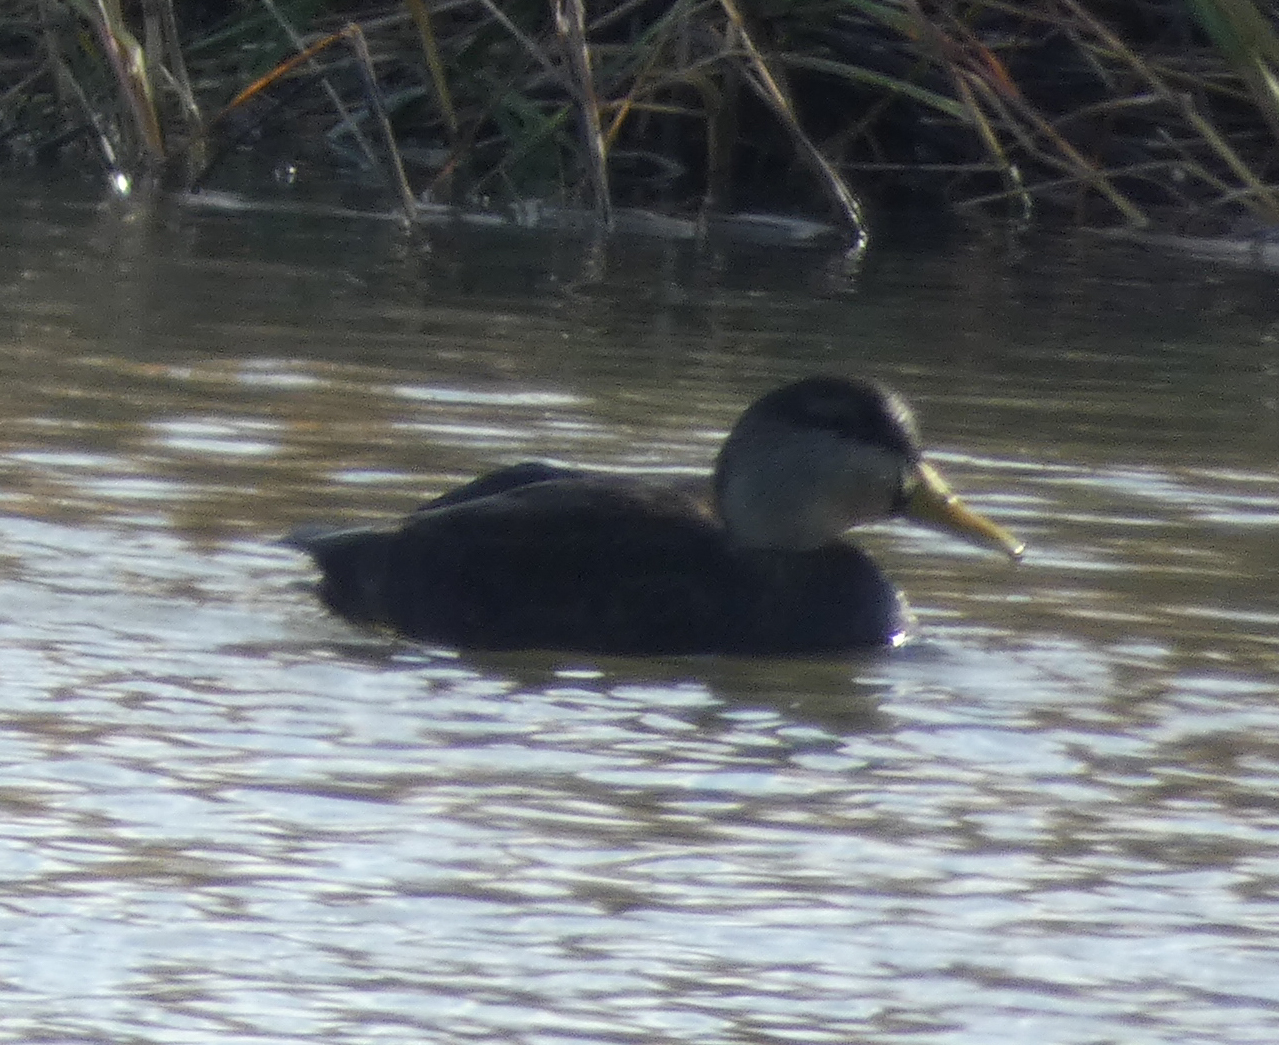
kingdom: Animalia
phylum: Chordata
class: Aves
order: Anseriformes
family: Anatidae
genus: Anas
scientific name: Anas rubripes
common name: American black duck
